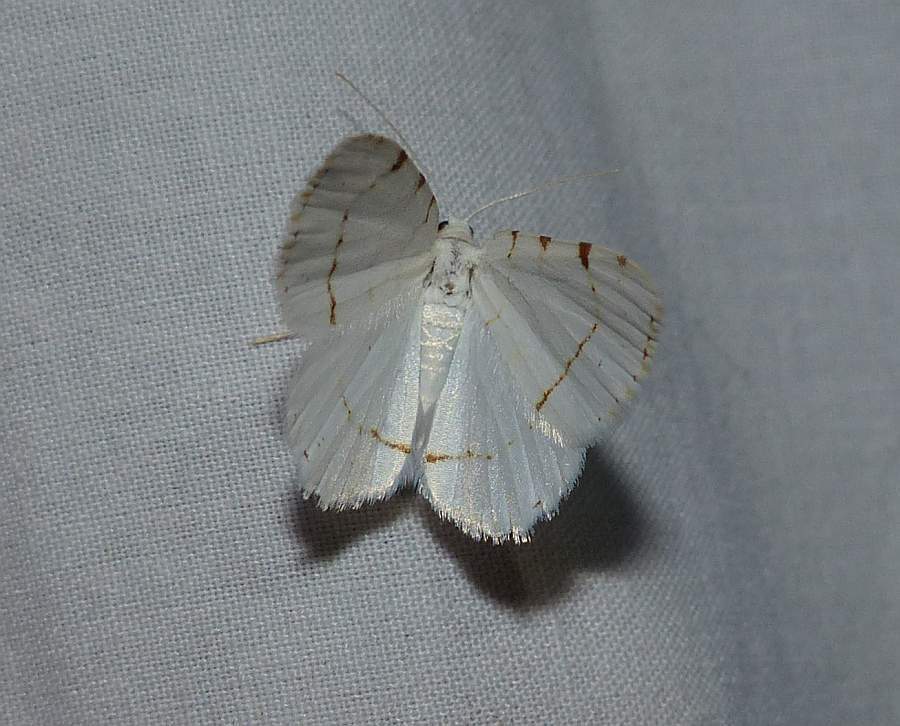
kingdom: Animalia
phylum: Arthropoda
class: Insecta
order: Lepidoptera
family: Geometridae
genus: Macaria
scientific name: Macaria pustularia
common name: Lesser maple spanworm moth
